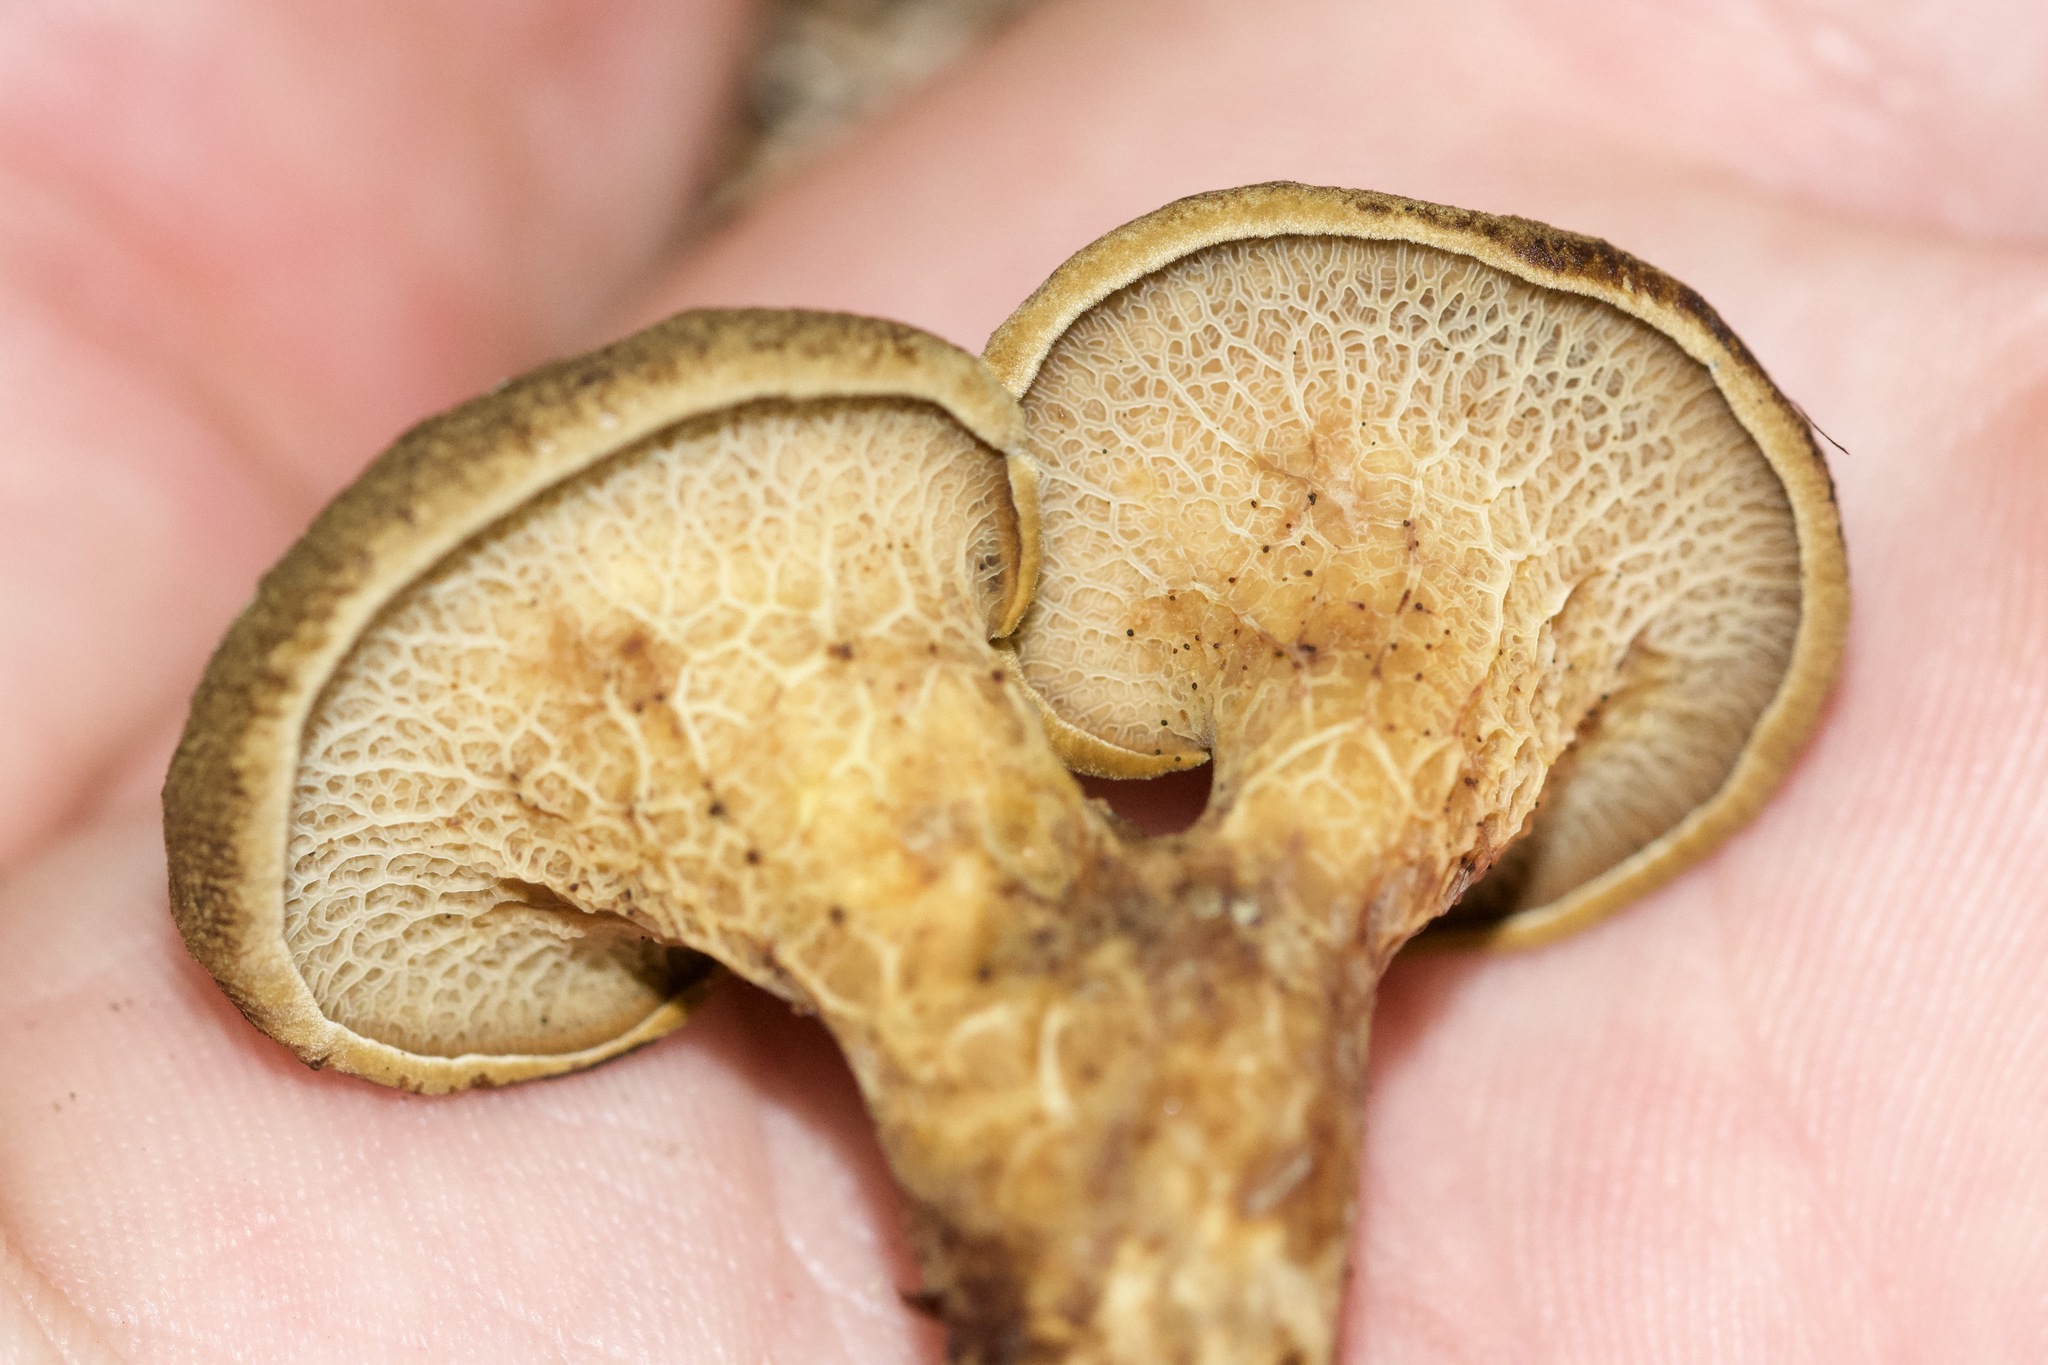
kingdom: Fungi
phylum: Basidiomycota
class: Agaricomycetes
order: Boletales
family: Boletinellaceae
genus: Boletinellus
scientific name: Boletinellus merulioides
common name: Ash tree bolete
